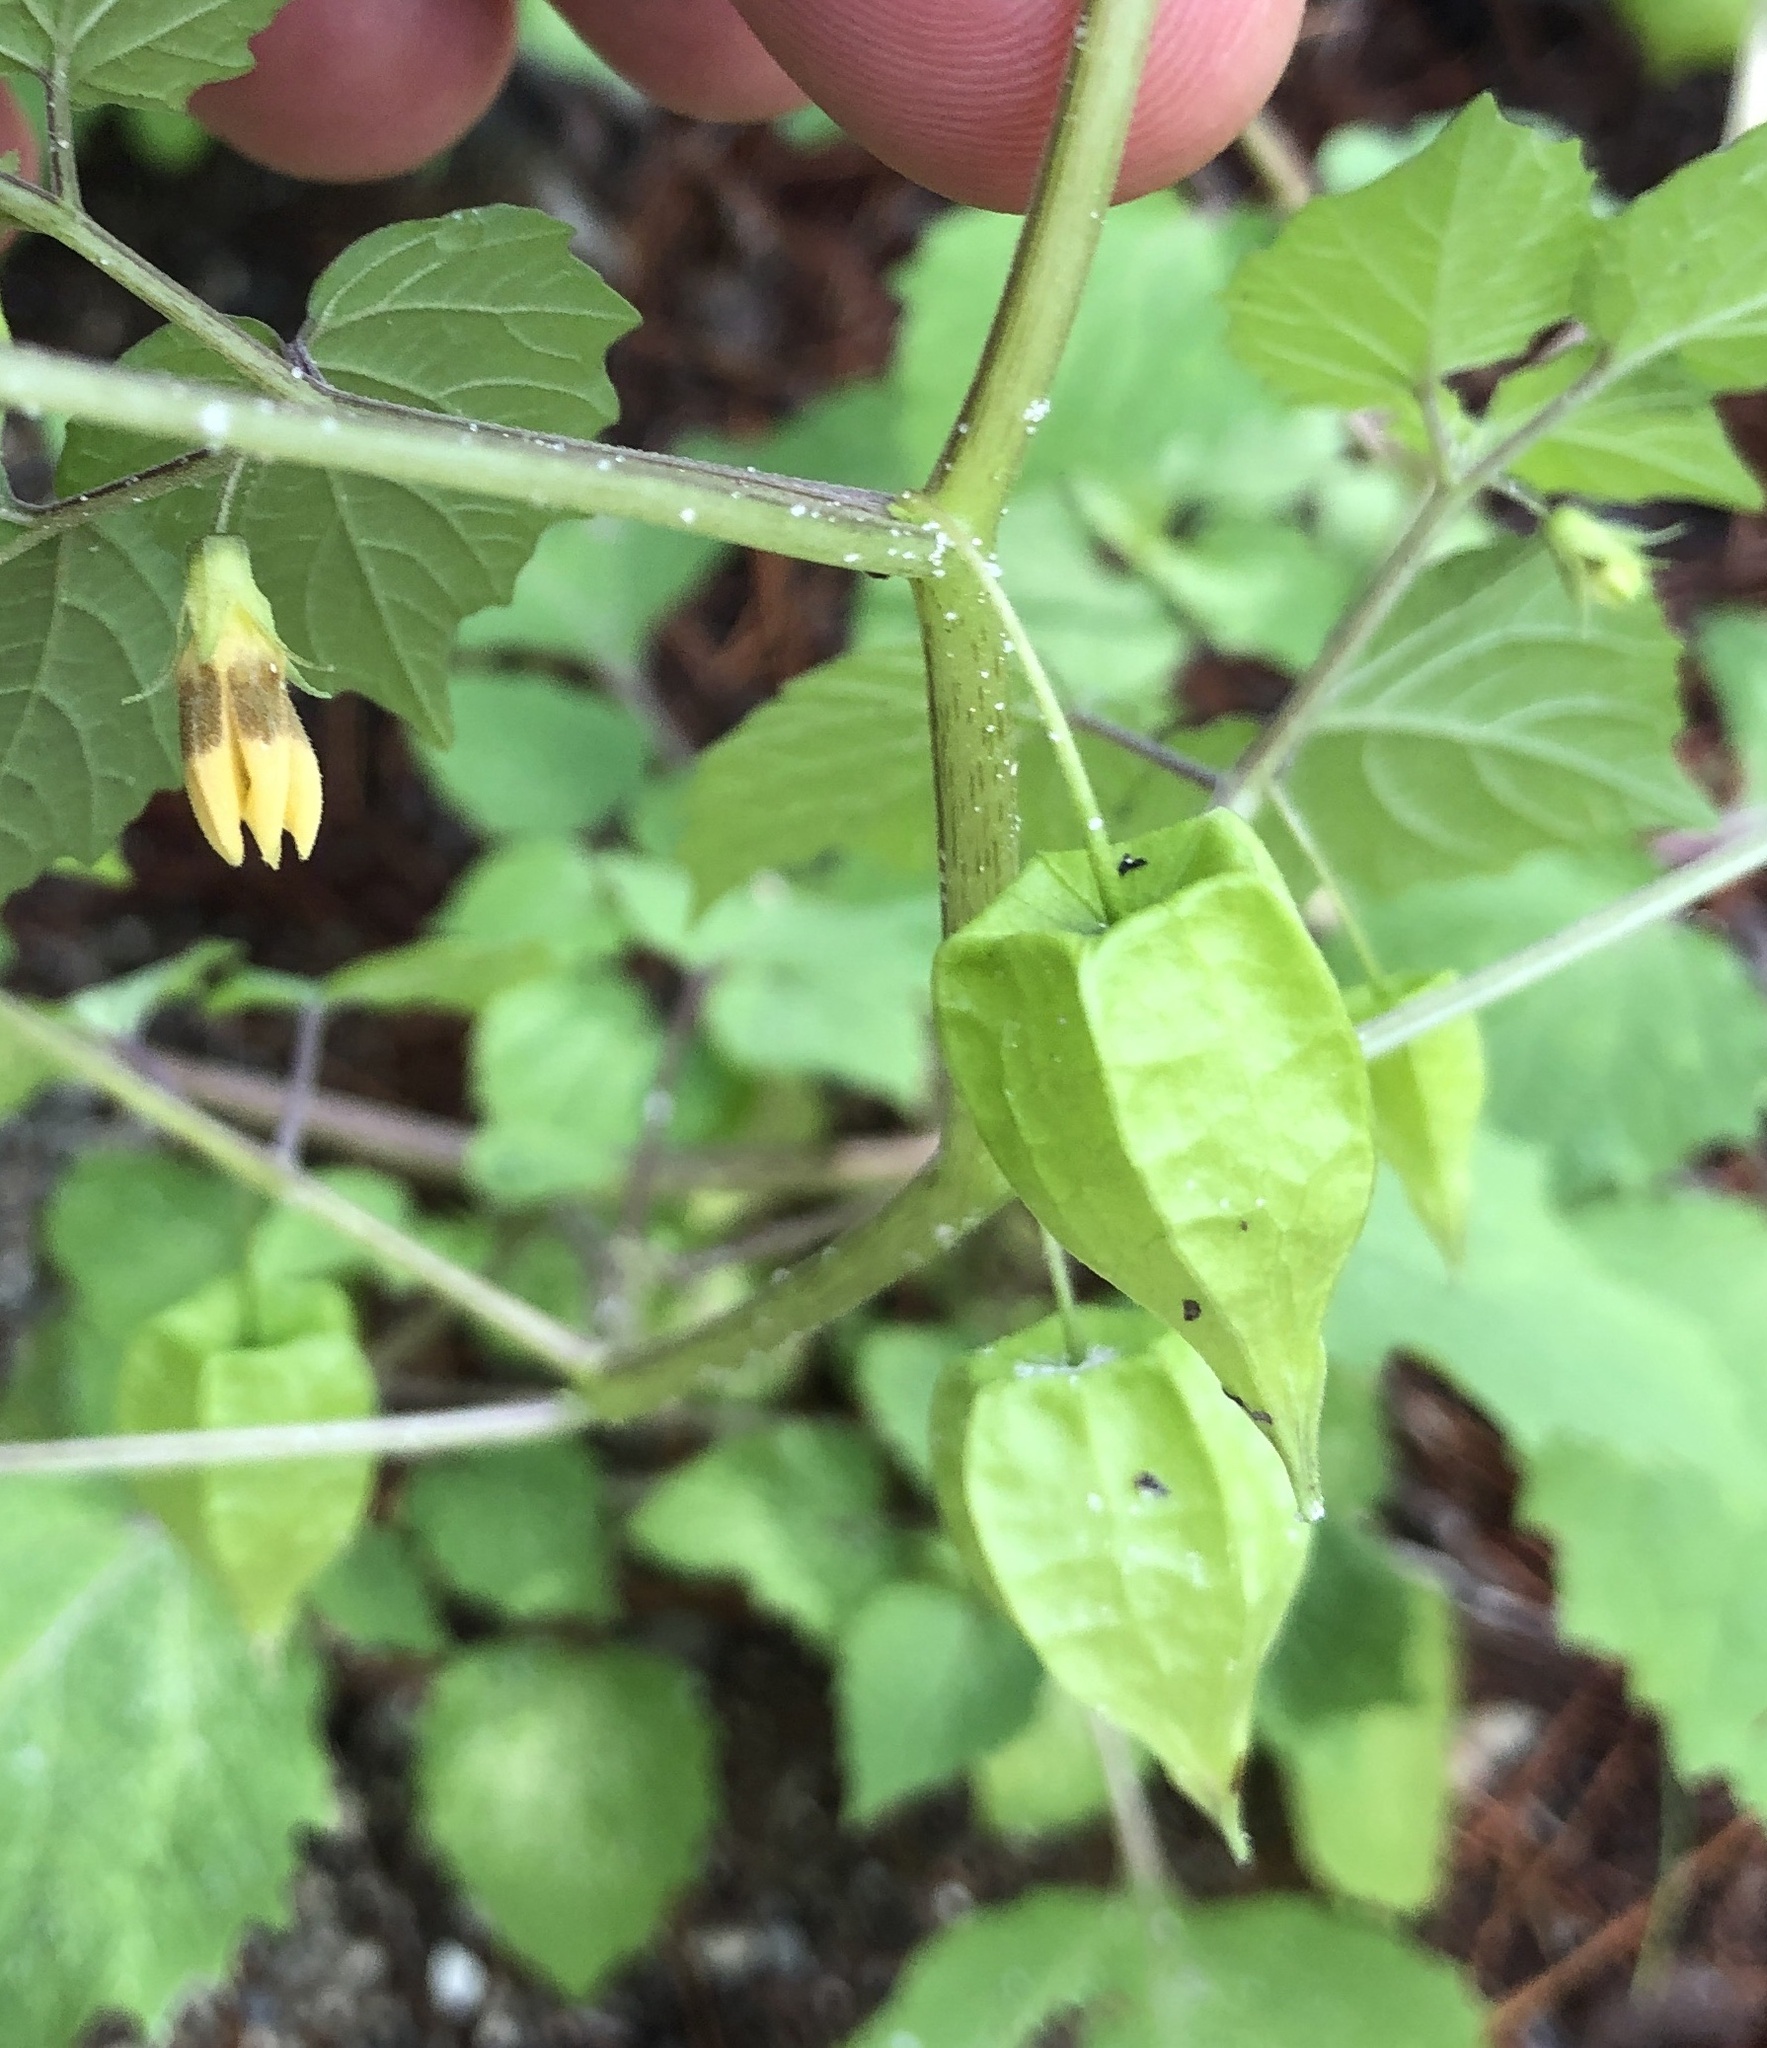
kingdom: Plantae
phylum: Tracheophyta
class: Magnoliopsida
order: Solanales
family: Solanaceae
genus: Physalis
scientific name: Physalis cordata
